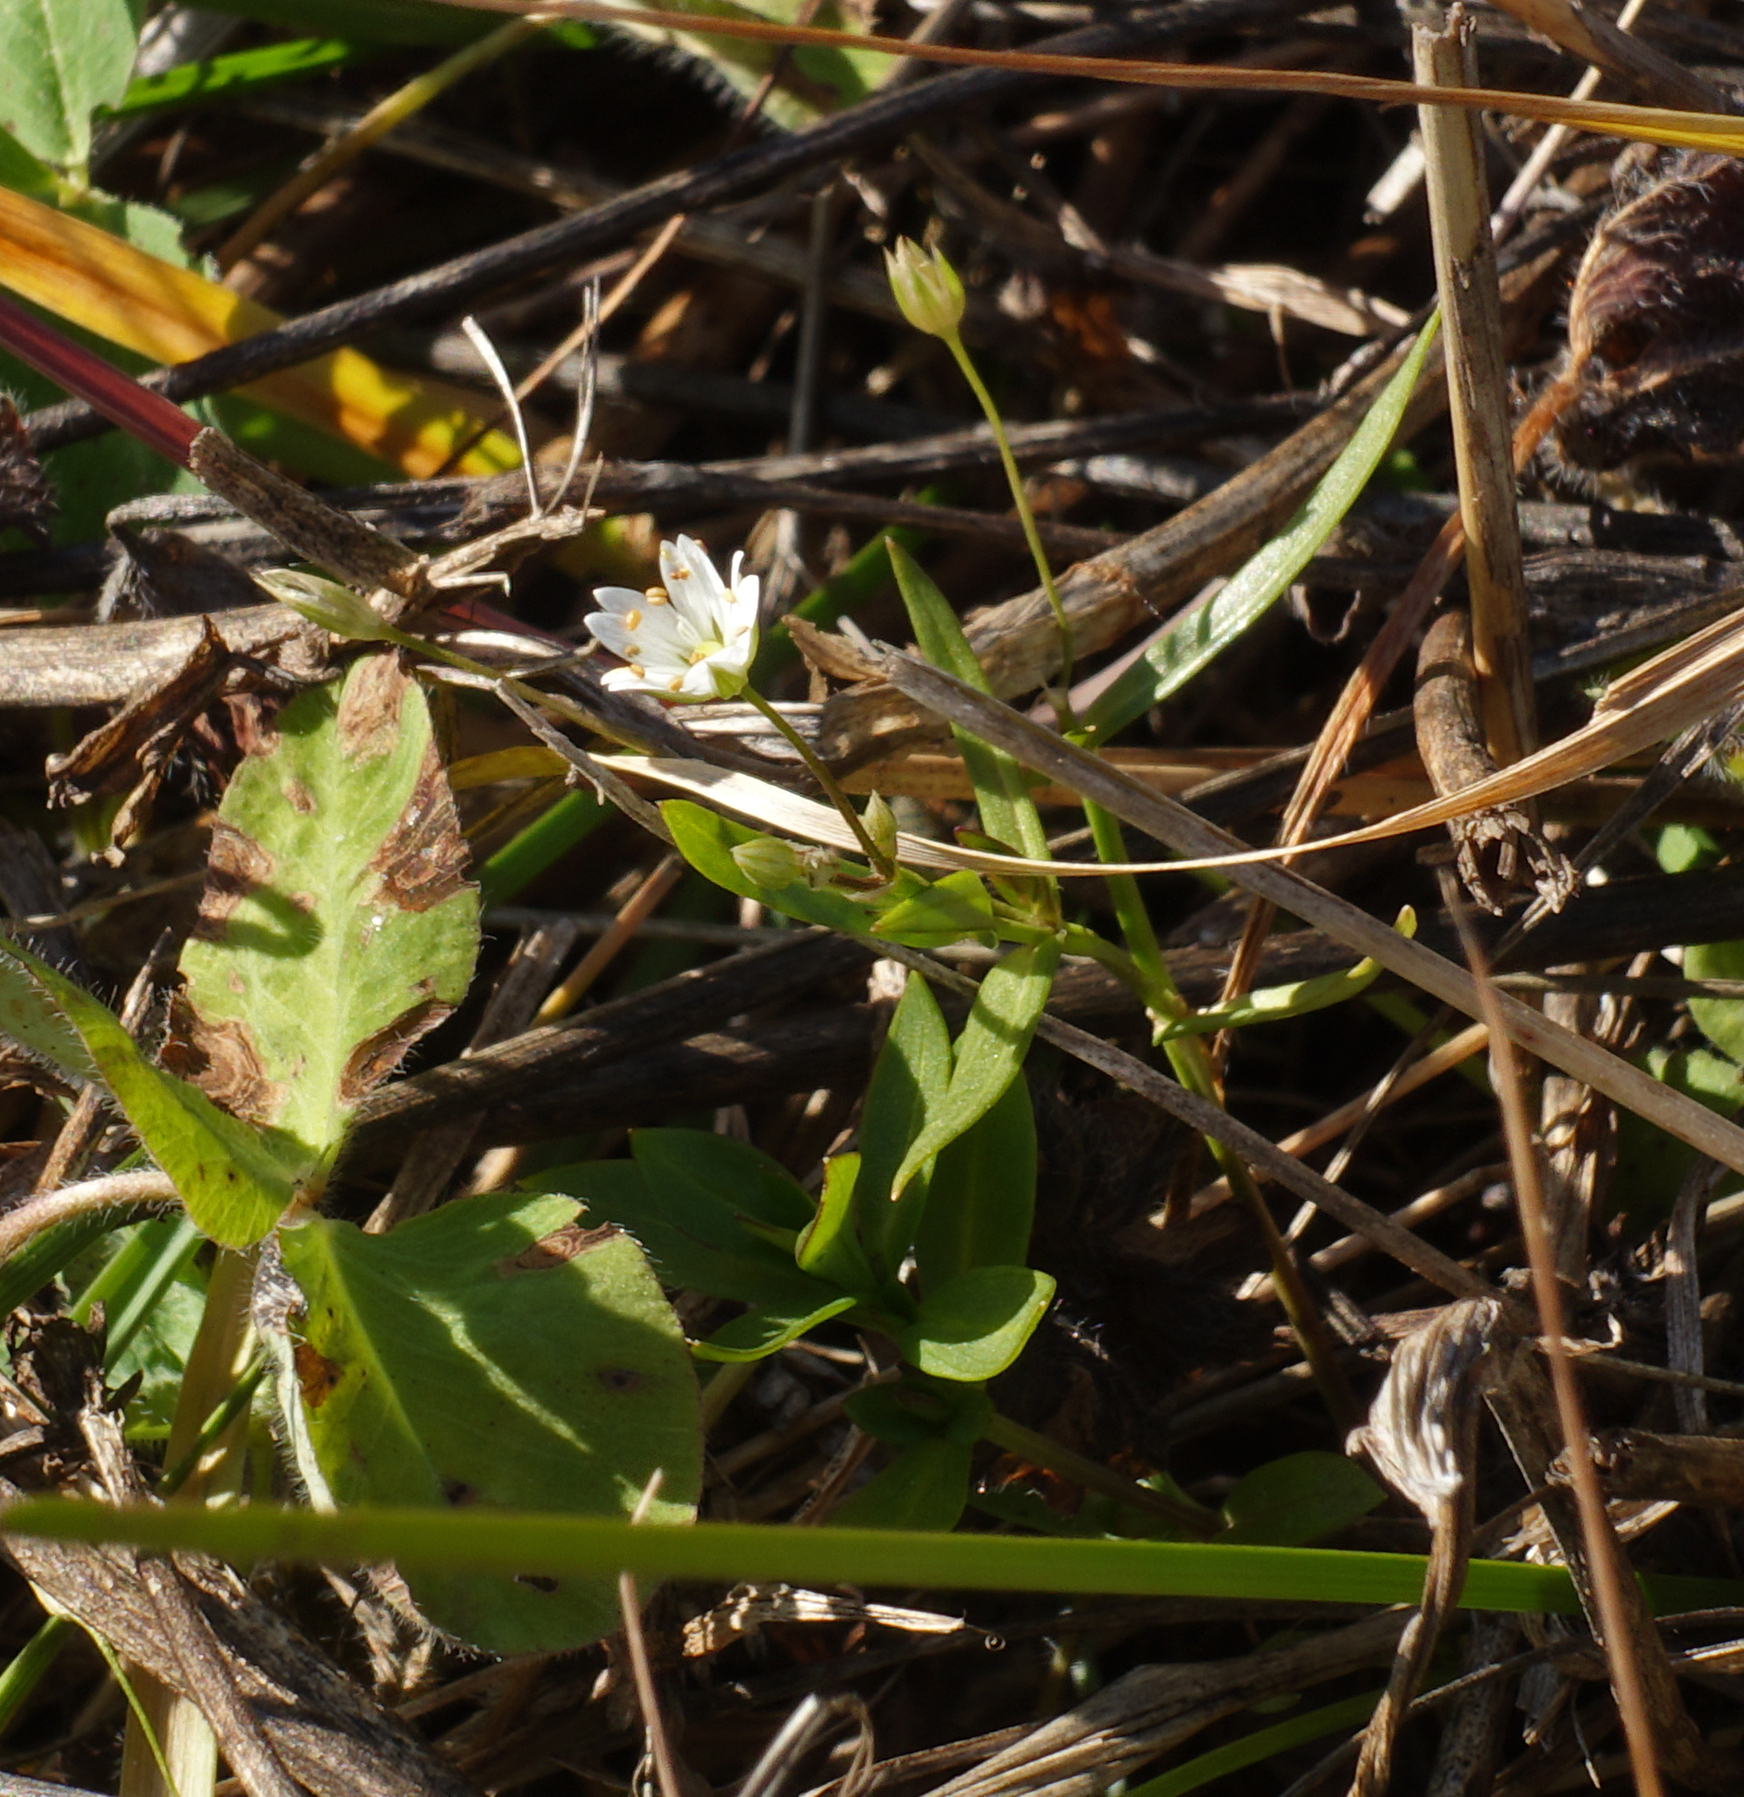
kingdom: Plantae
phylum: Tracheophyta
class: Magnoliopsida
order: Caryophyllales
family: Caryophyllaceae
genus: Stellaria
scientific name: Stellaria graminea
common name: Grass-like starwort
